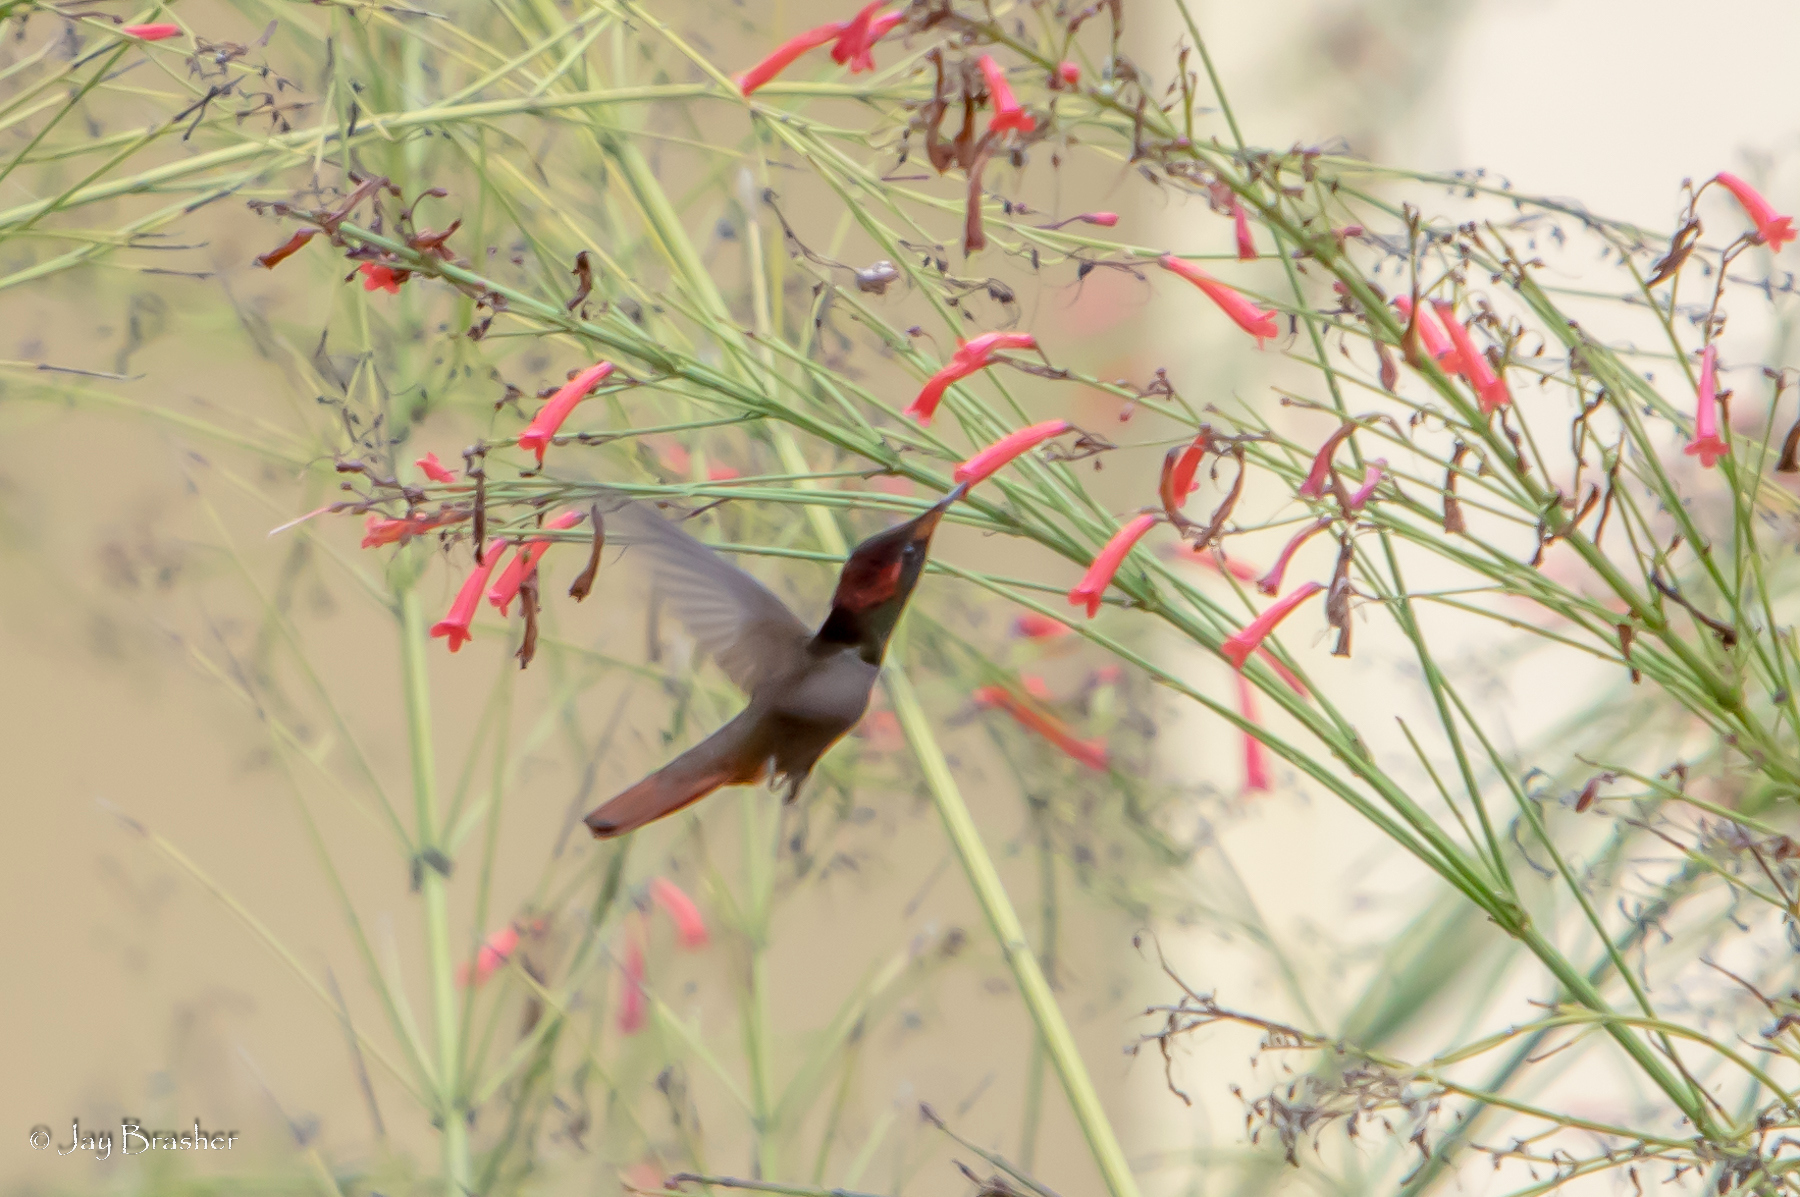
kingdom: Animalia
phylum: Chordata
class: Aves
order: Apodiformes
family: Trochilidae
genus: Chrysolampis
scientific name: Chrysolampis mosquitus
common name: Ruby-topaz hummingbird
